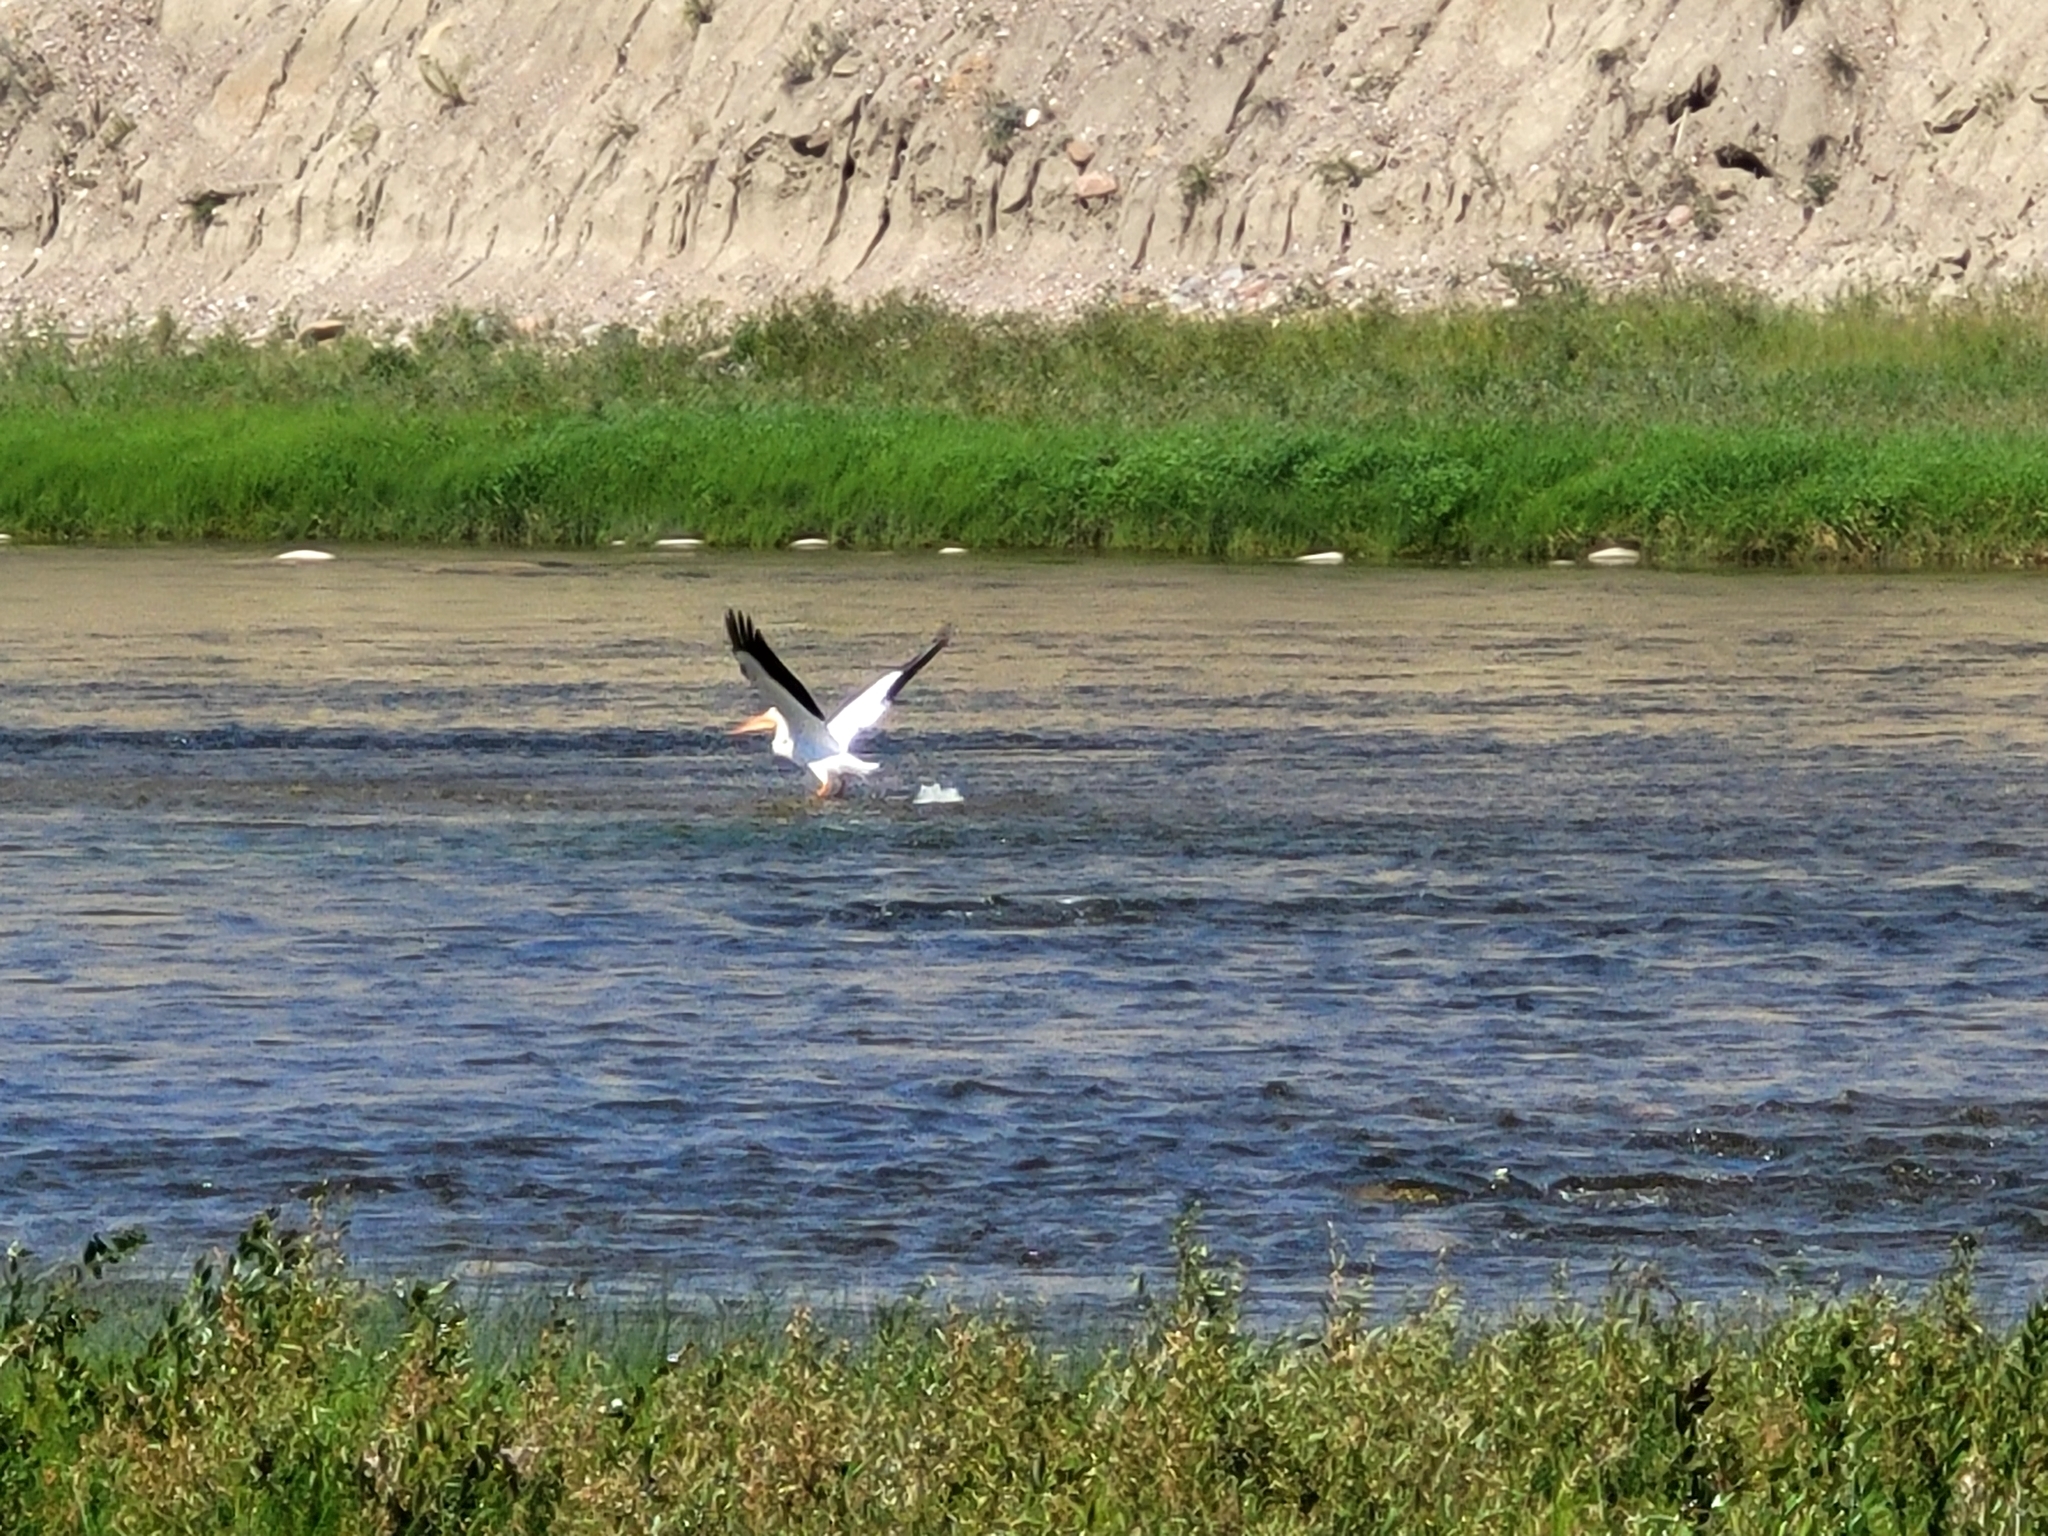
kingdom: Animalia
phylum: Chordata
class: Aves
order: Pelecaniformes
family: Pelecanidae
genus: Pelecanus
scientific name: Pelecanus erythrorhynchos
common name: American white pelican
